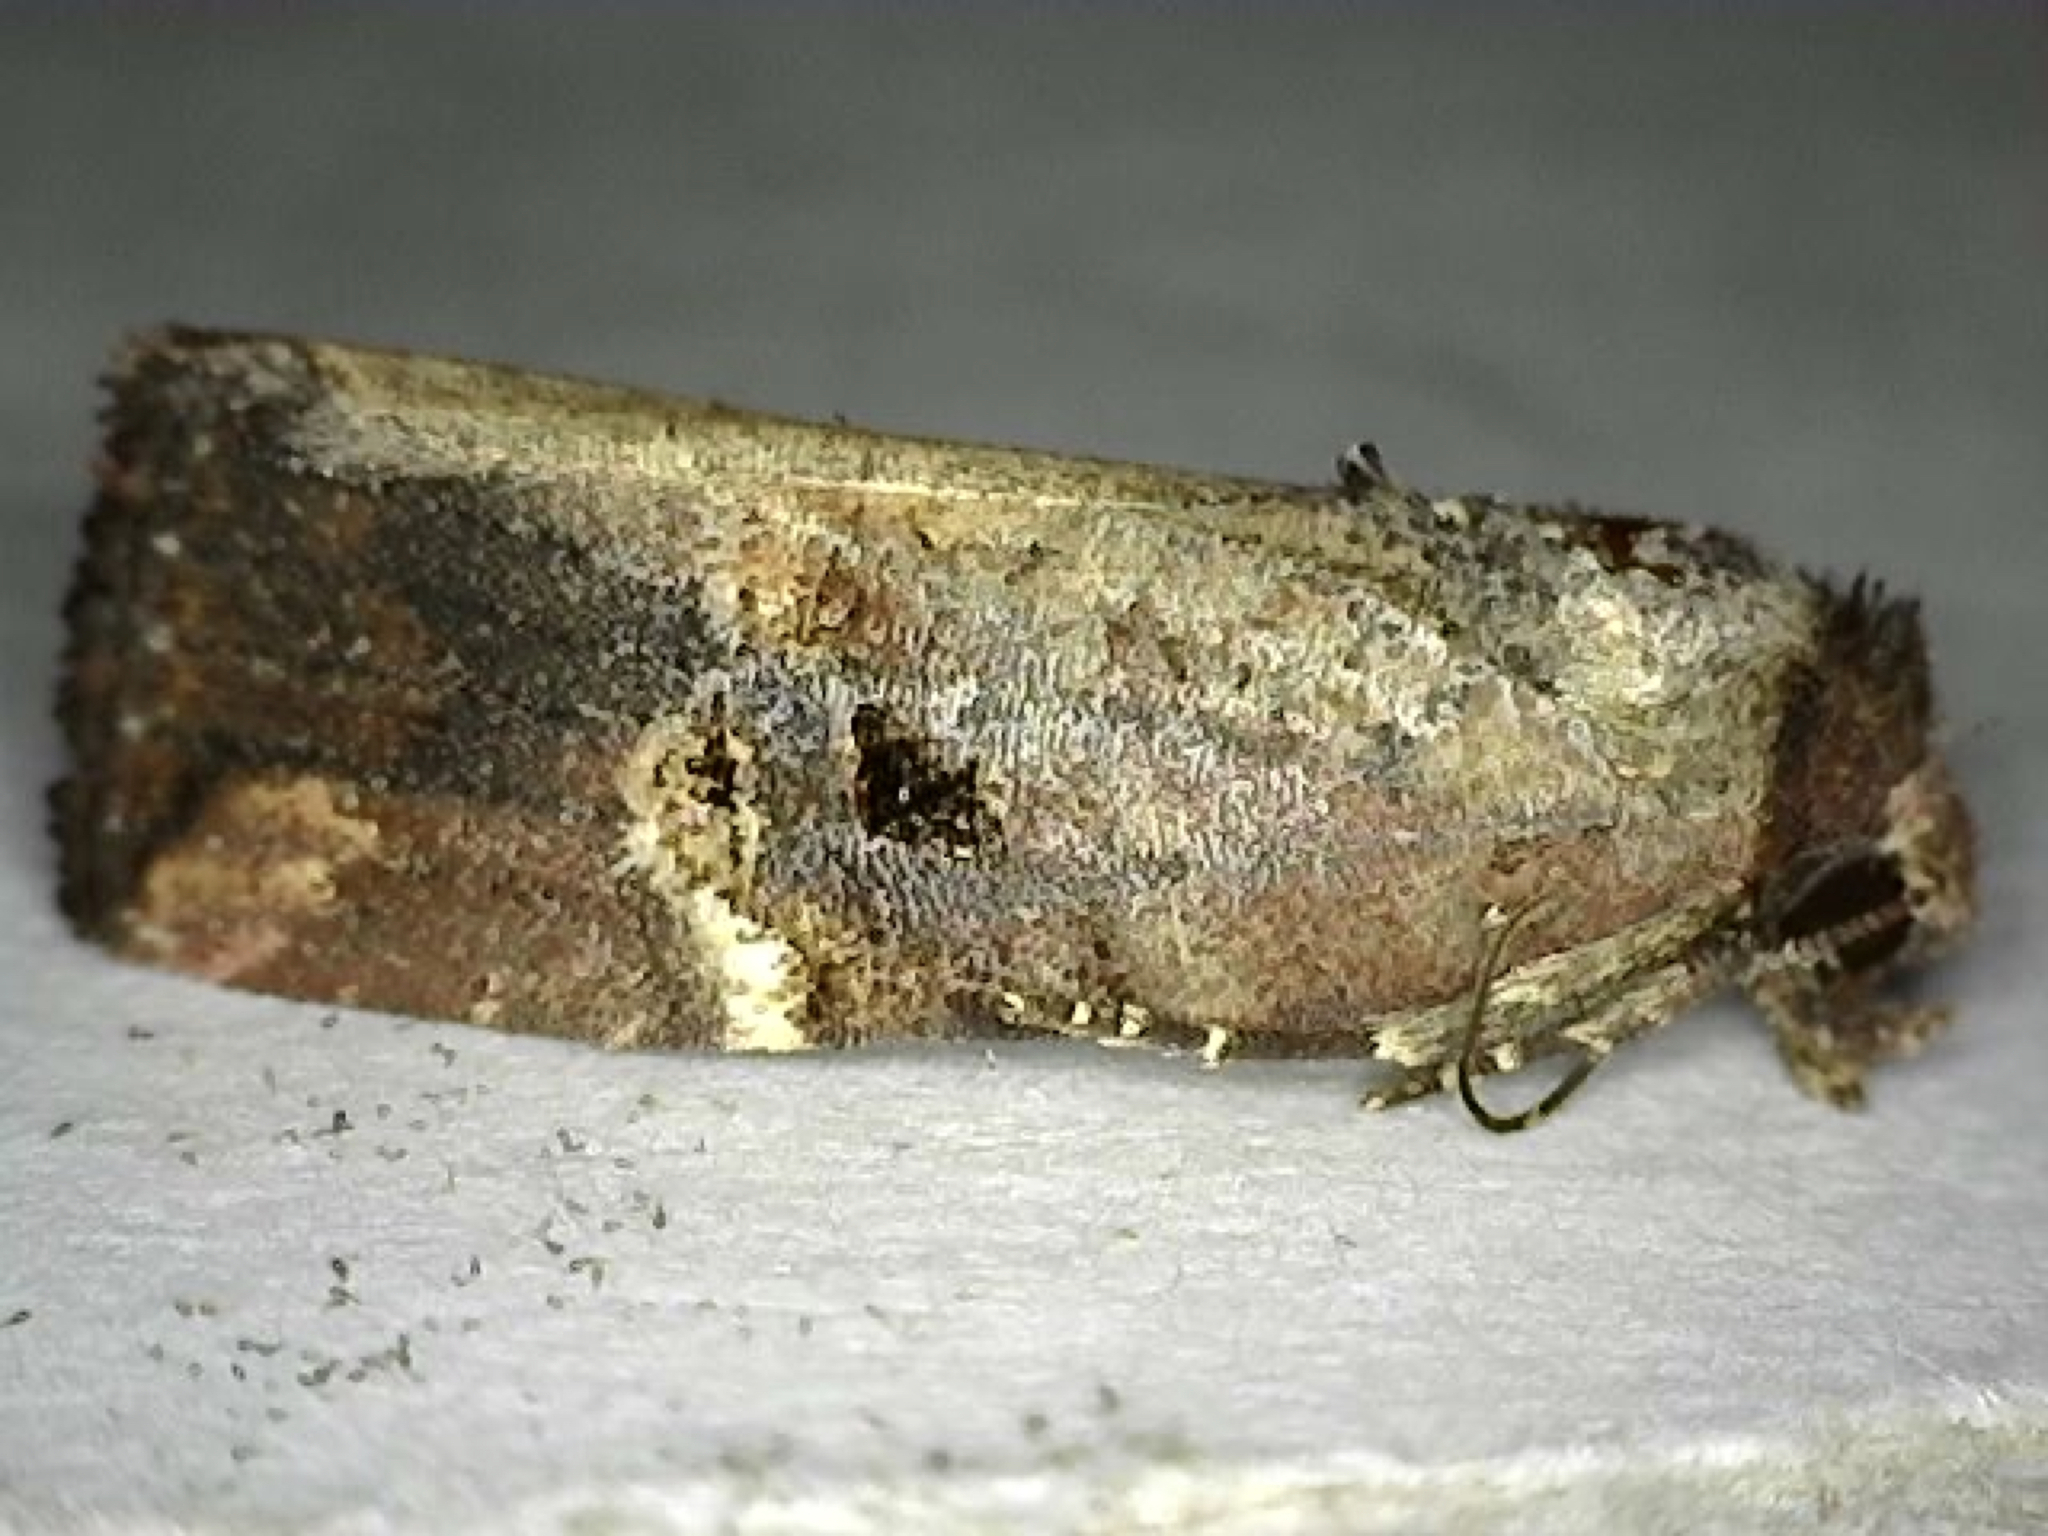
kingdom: Animalia
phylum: Arthropoda
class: Insecta
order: Lepidoptera
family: Noctuidae
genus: Elaphria
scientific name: Elaphria versicolor
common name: Fir harlequin
